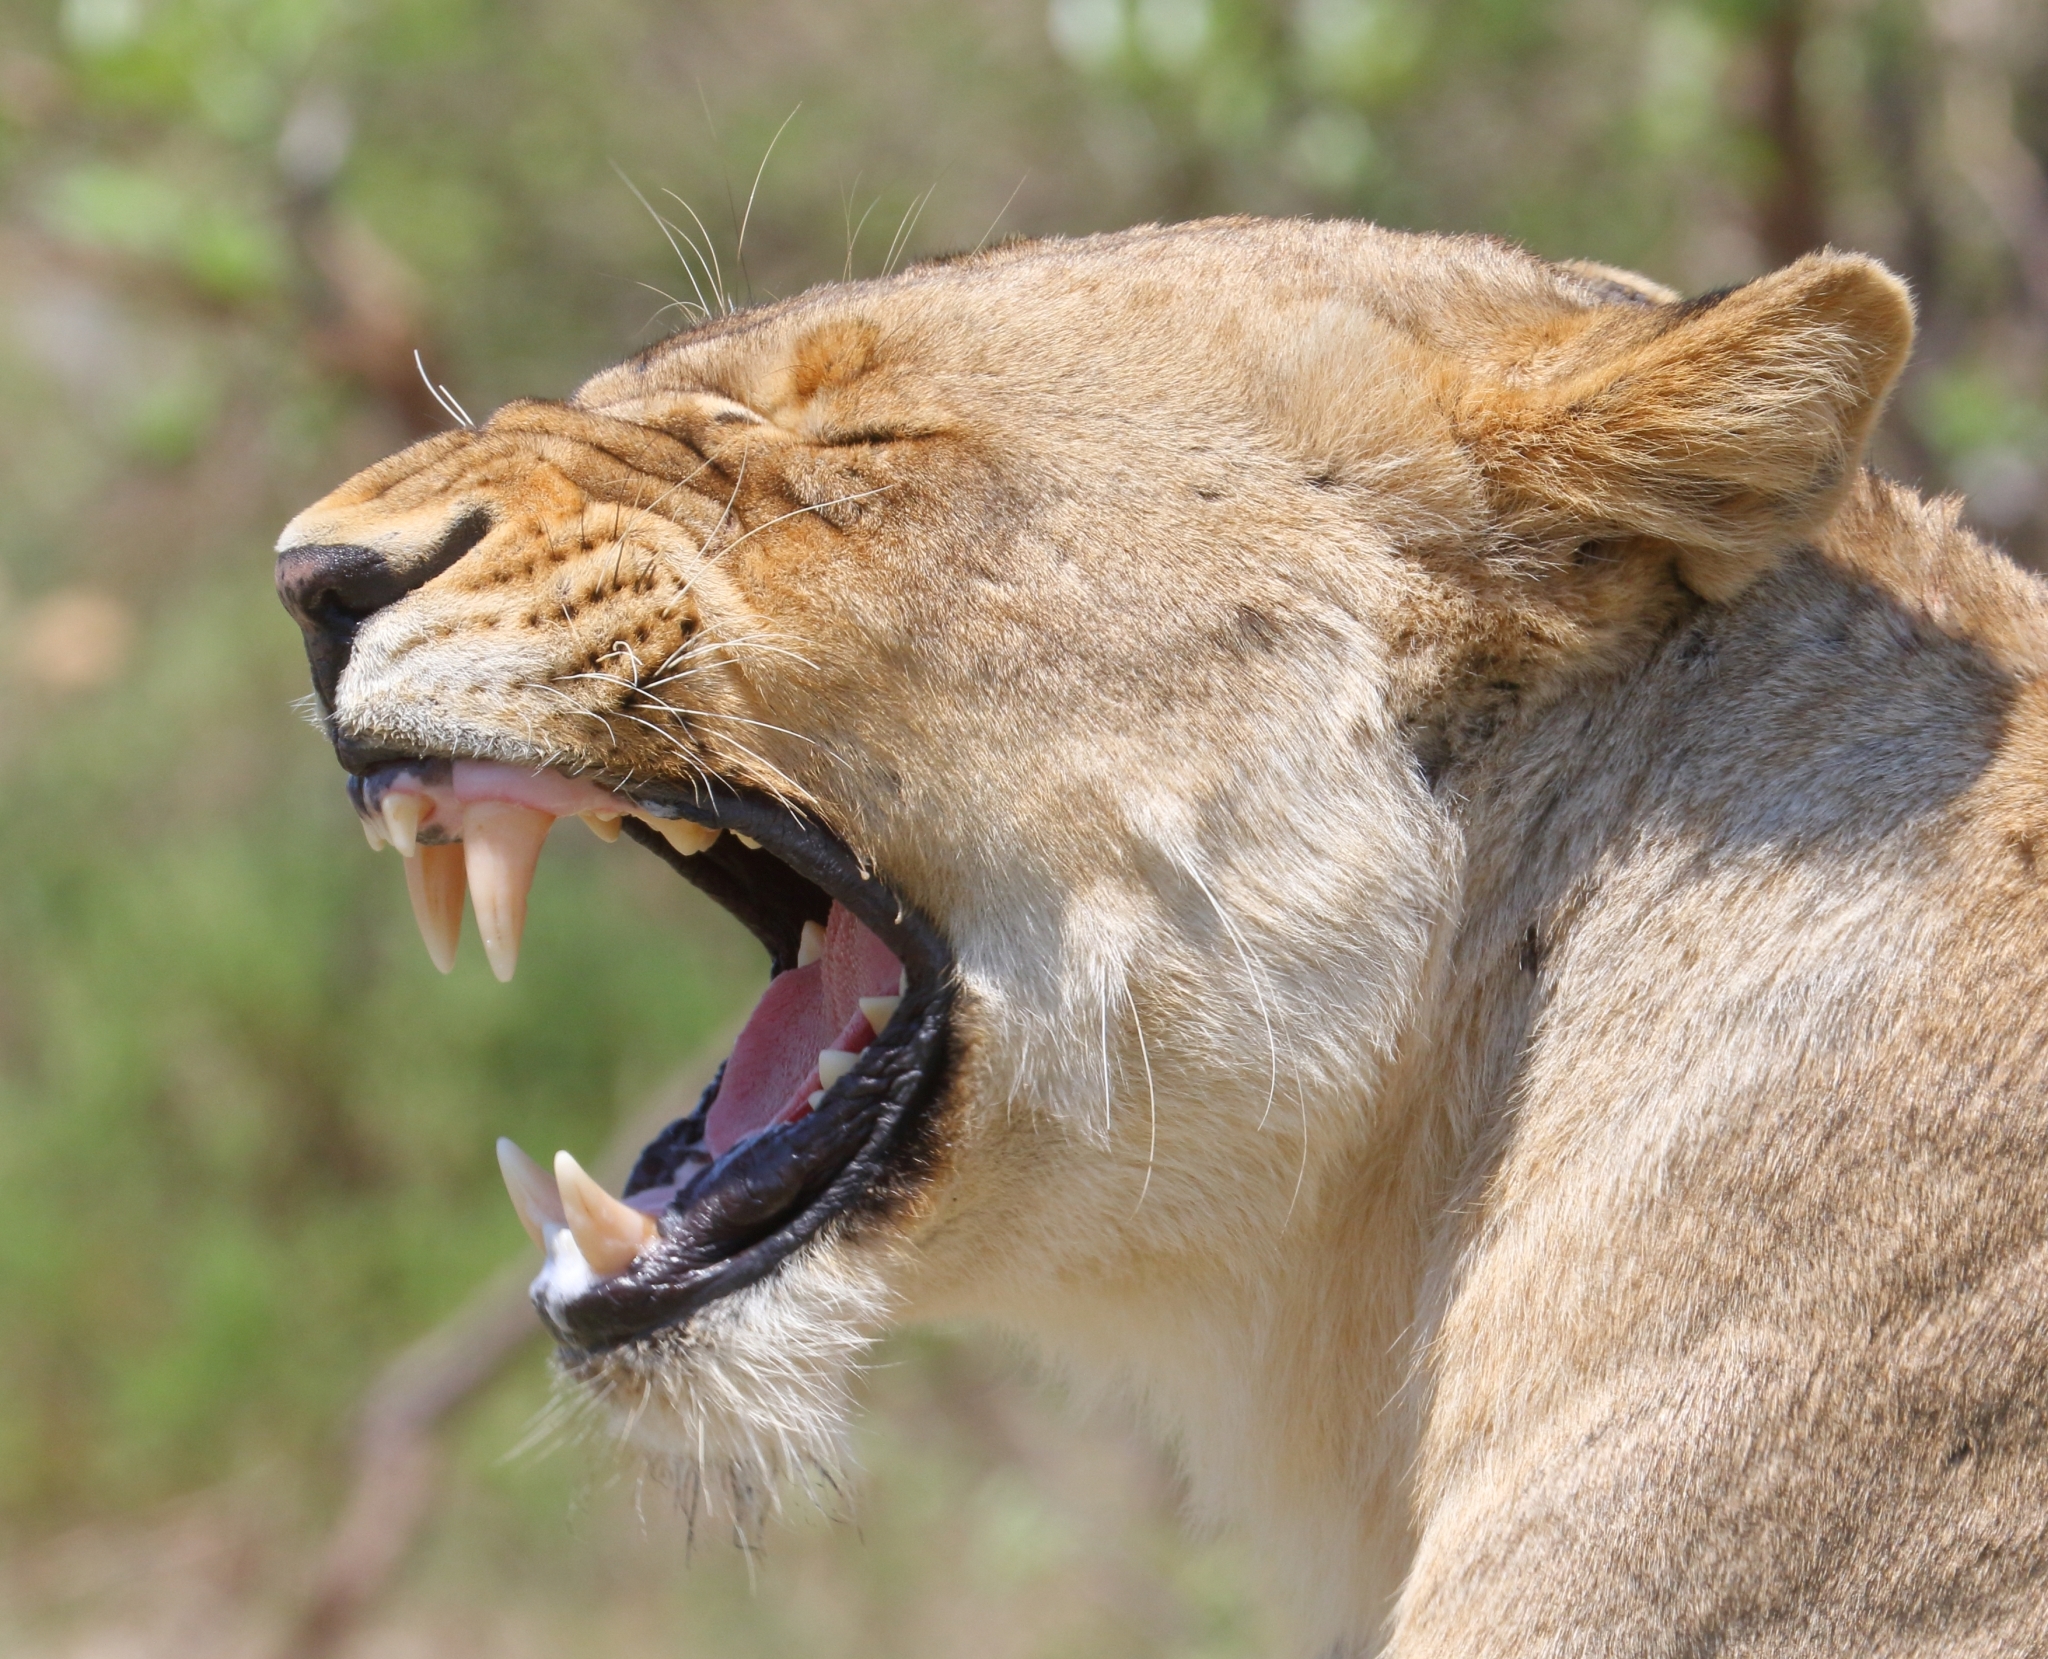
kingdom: Animalia
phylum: Chordata
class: Mammalia
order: Carnivora
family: Felidae
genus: Panthera
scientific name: Panthera leo
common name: Lion
